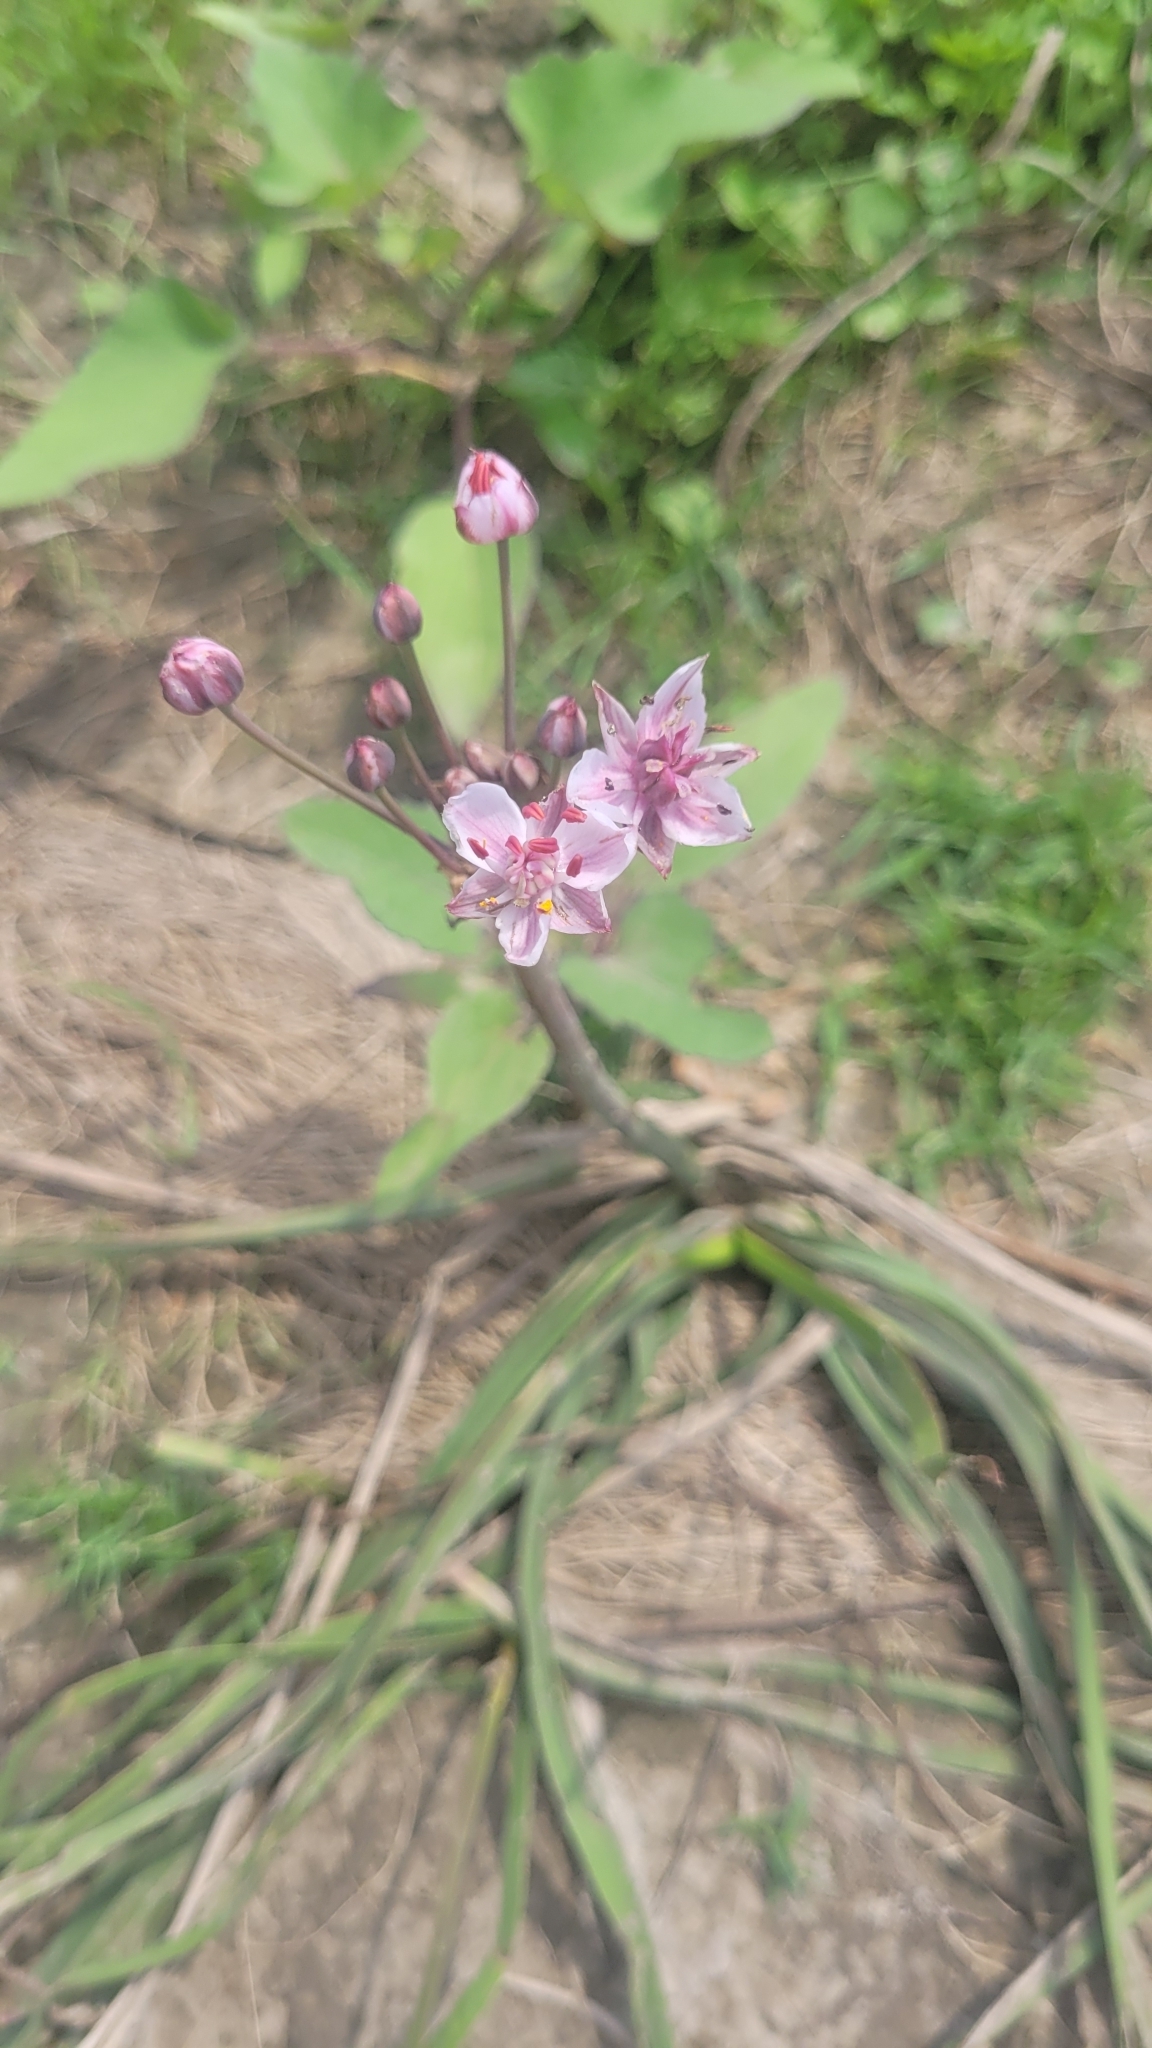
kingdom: Plantae
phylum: Tracheophyta
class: Liliopsida
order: Alismatales
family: Butomaceae
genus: Butomus
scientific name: Butomus umbellatus
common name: Flowering-rush
